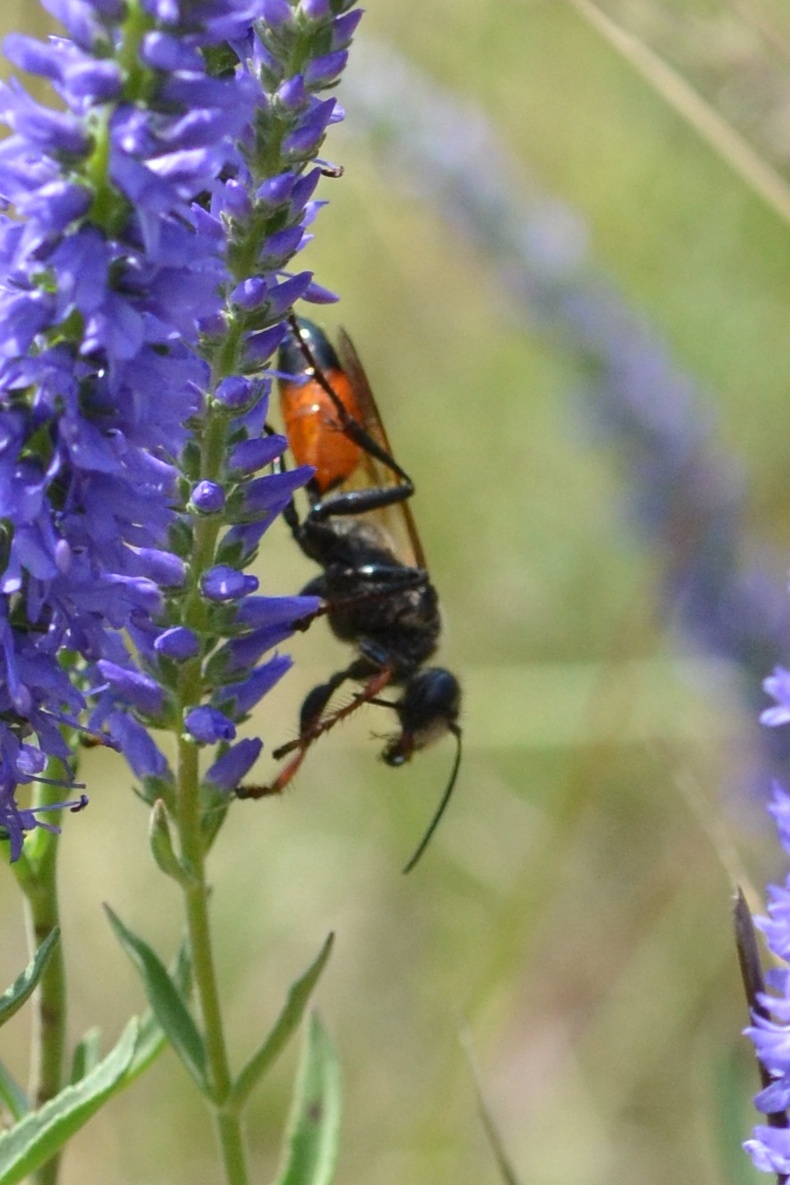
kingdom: Animalia
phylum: Arthropoda
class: Insecta
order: Hymenoptera
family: Sphecidae
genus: Sphex
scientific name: Sphex funerarius
